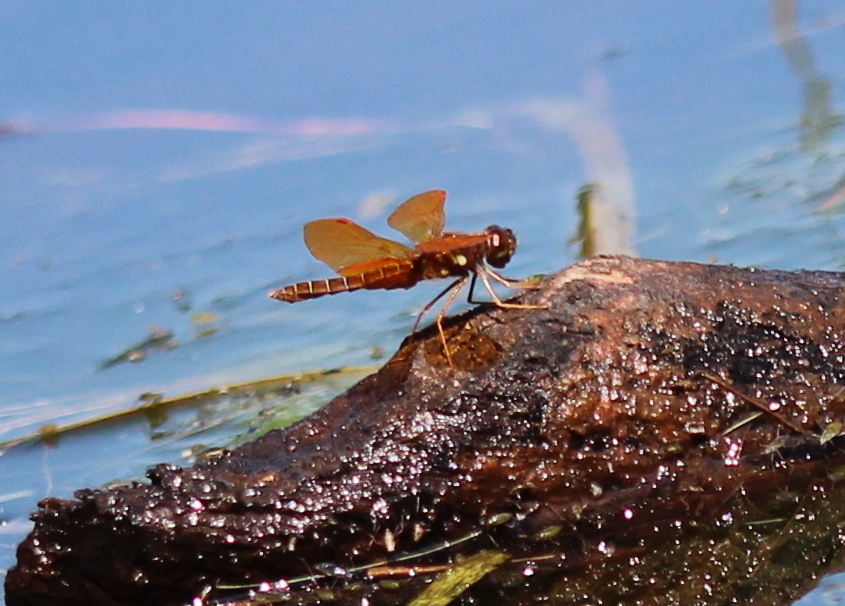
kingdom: Animalia
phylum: Arthropoda
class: Insecta
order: Odonata
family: Libellulidae
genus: Perithemis
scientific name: Perithemis tenera
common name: Eastern amberwing
